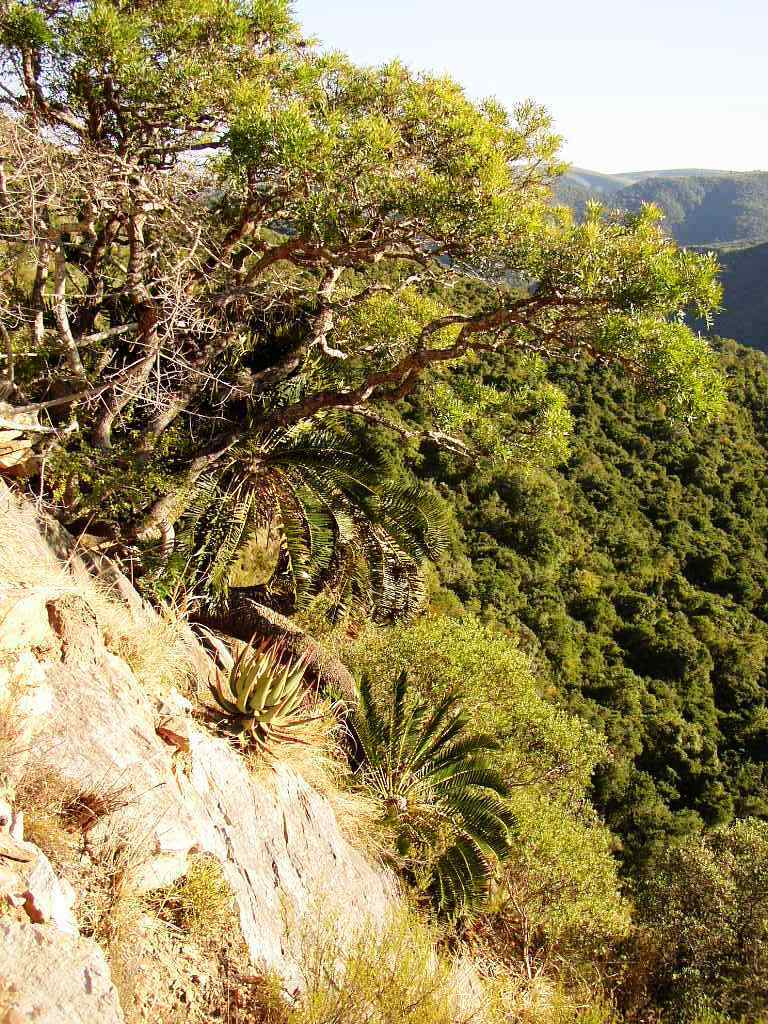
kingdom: Plantae
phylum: Tracheophyta
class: Cycadopsida
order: Cycadales
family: Zamiaceae
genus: Encephalartos
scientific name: Encephalartos longifolius
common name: Suurberg cycad
